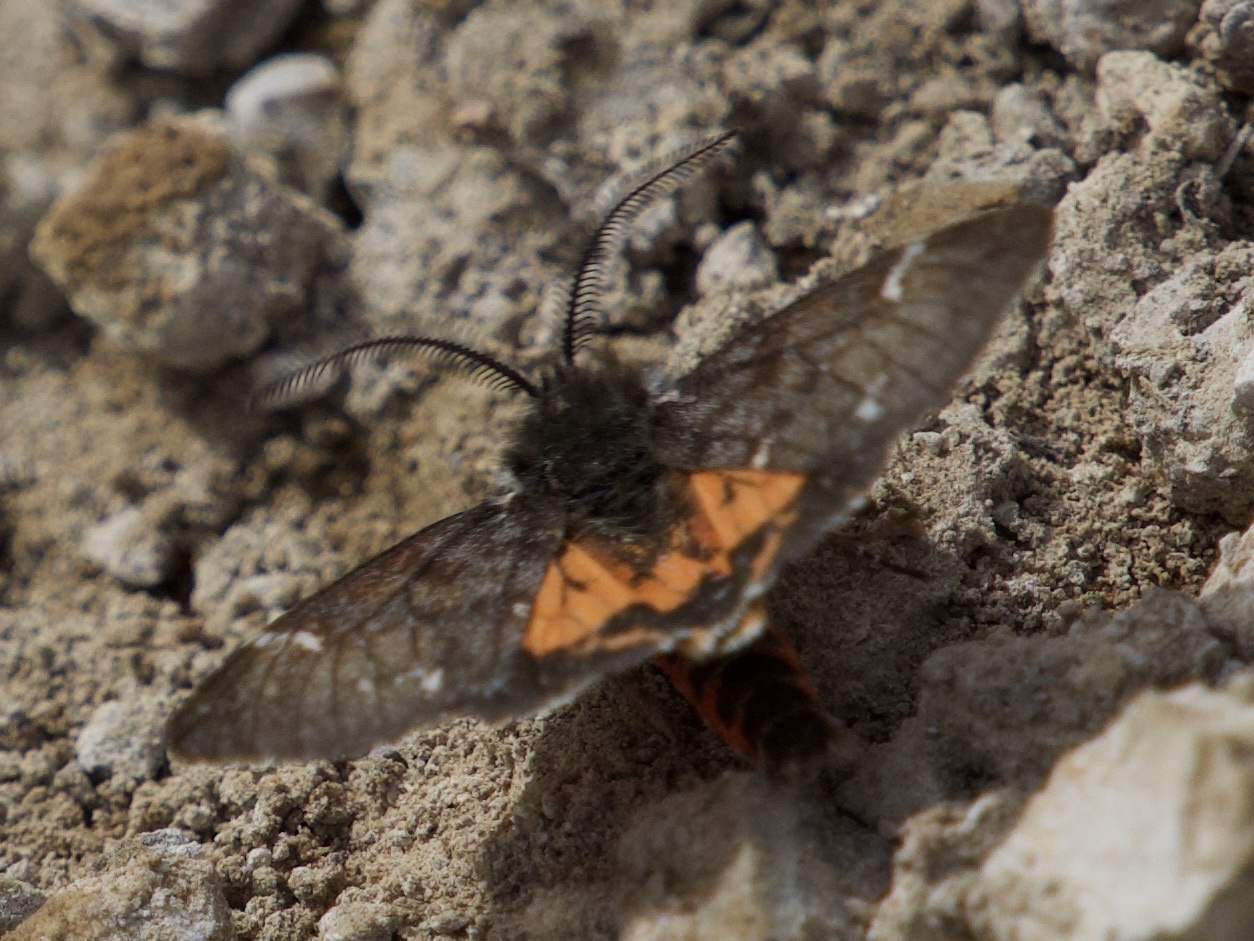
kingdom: Animalia
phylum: Arthropoda
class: Insecta
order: Lepidoptera
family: Erebidae
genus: Leptarctia
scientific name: Leptarctia californiae
